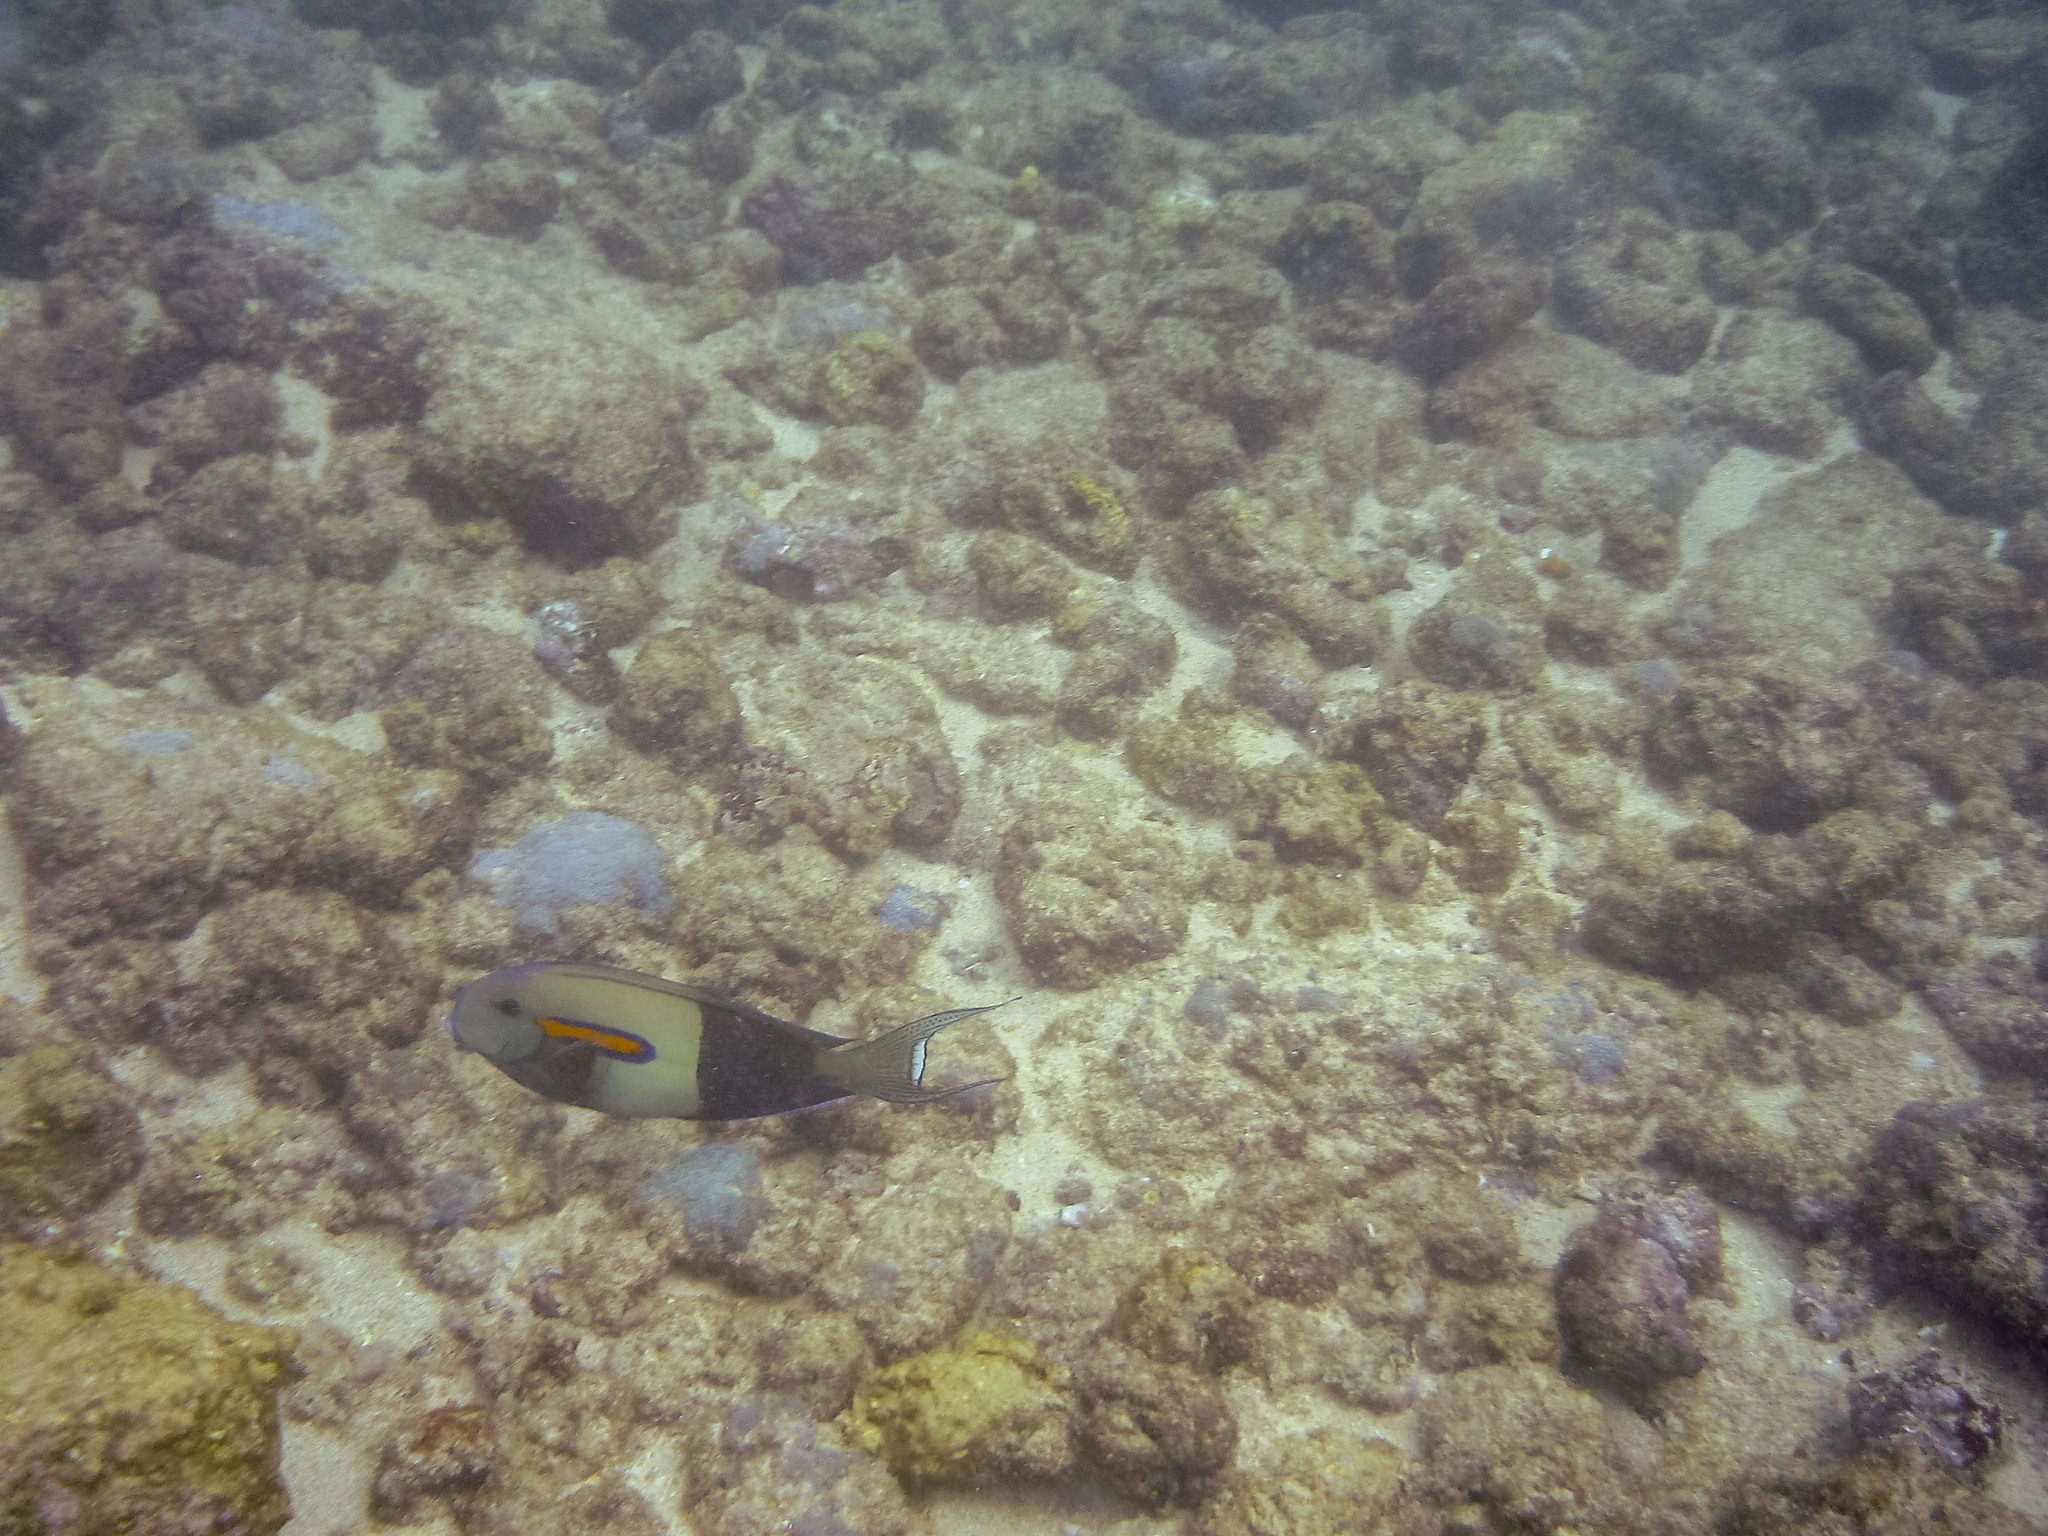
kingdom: Animalia
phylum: Chordata
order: Perciformes
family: Acanthuridae
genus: Acanthurus
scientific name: Acanthurus olivaceus
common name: Gendarme fish
